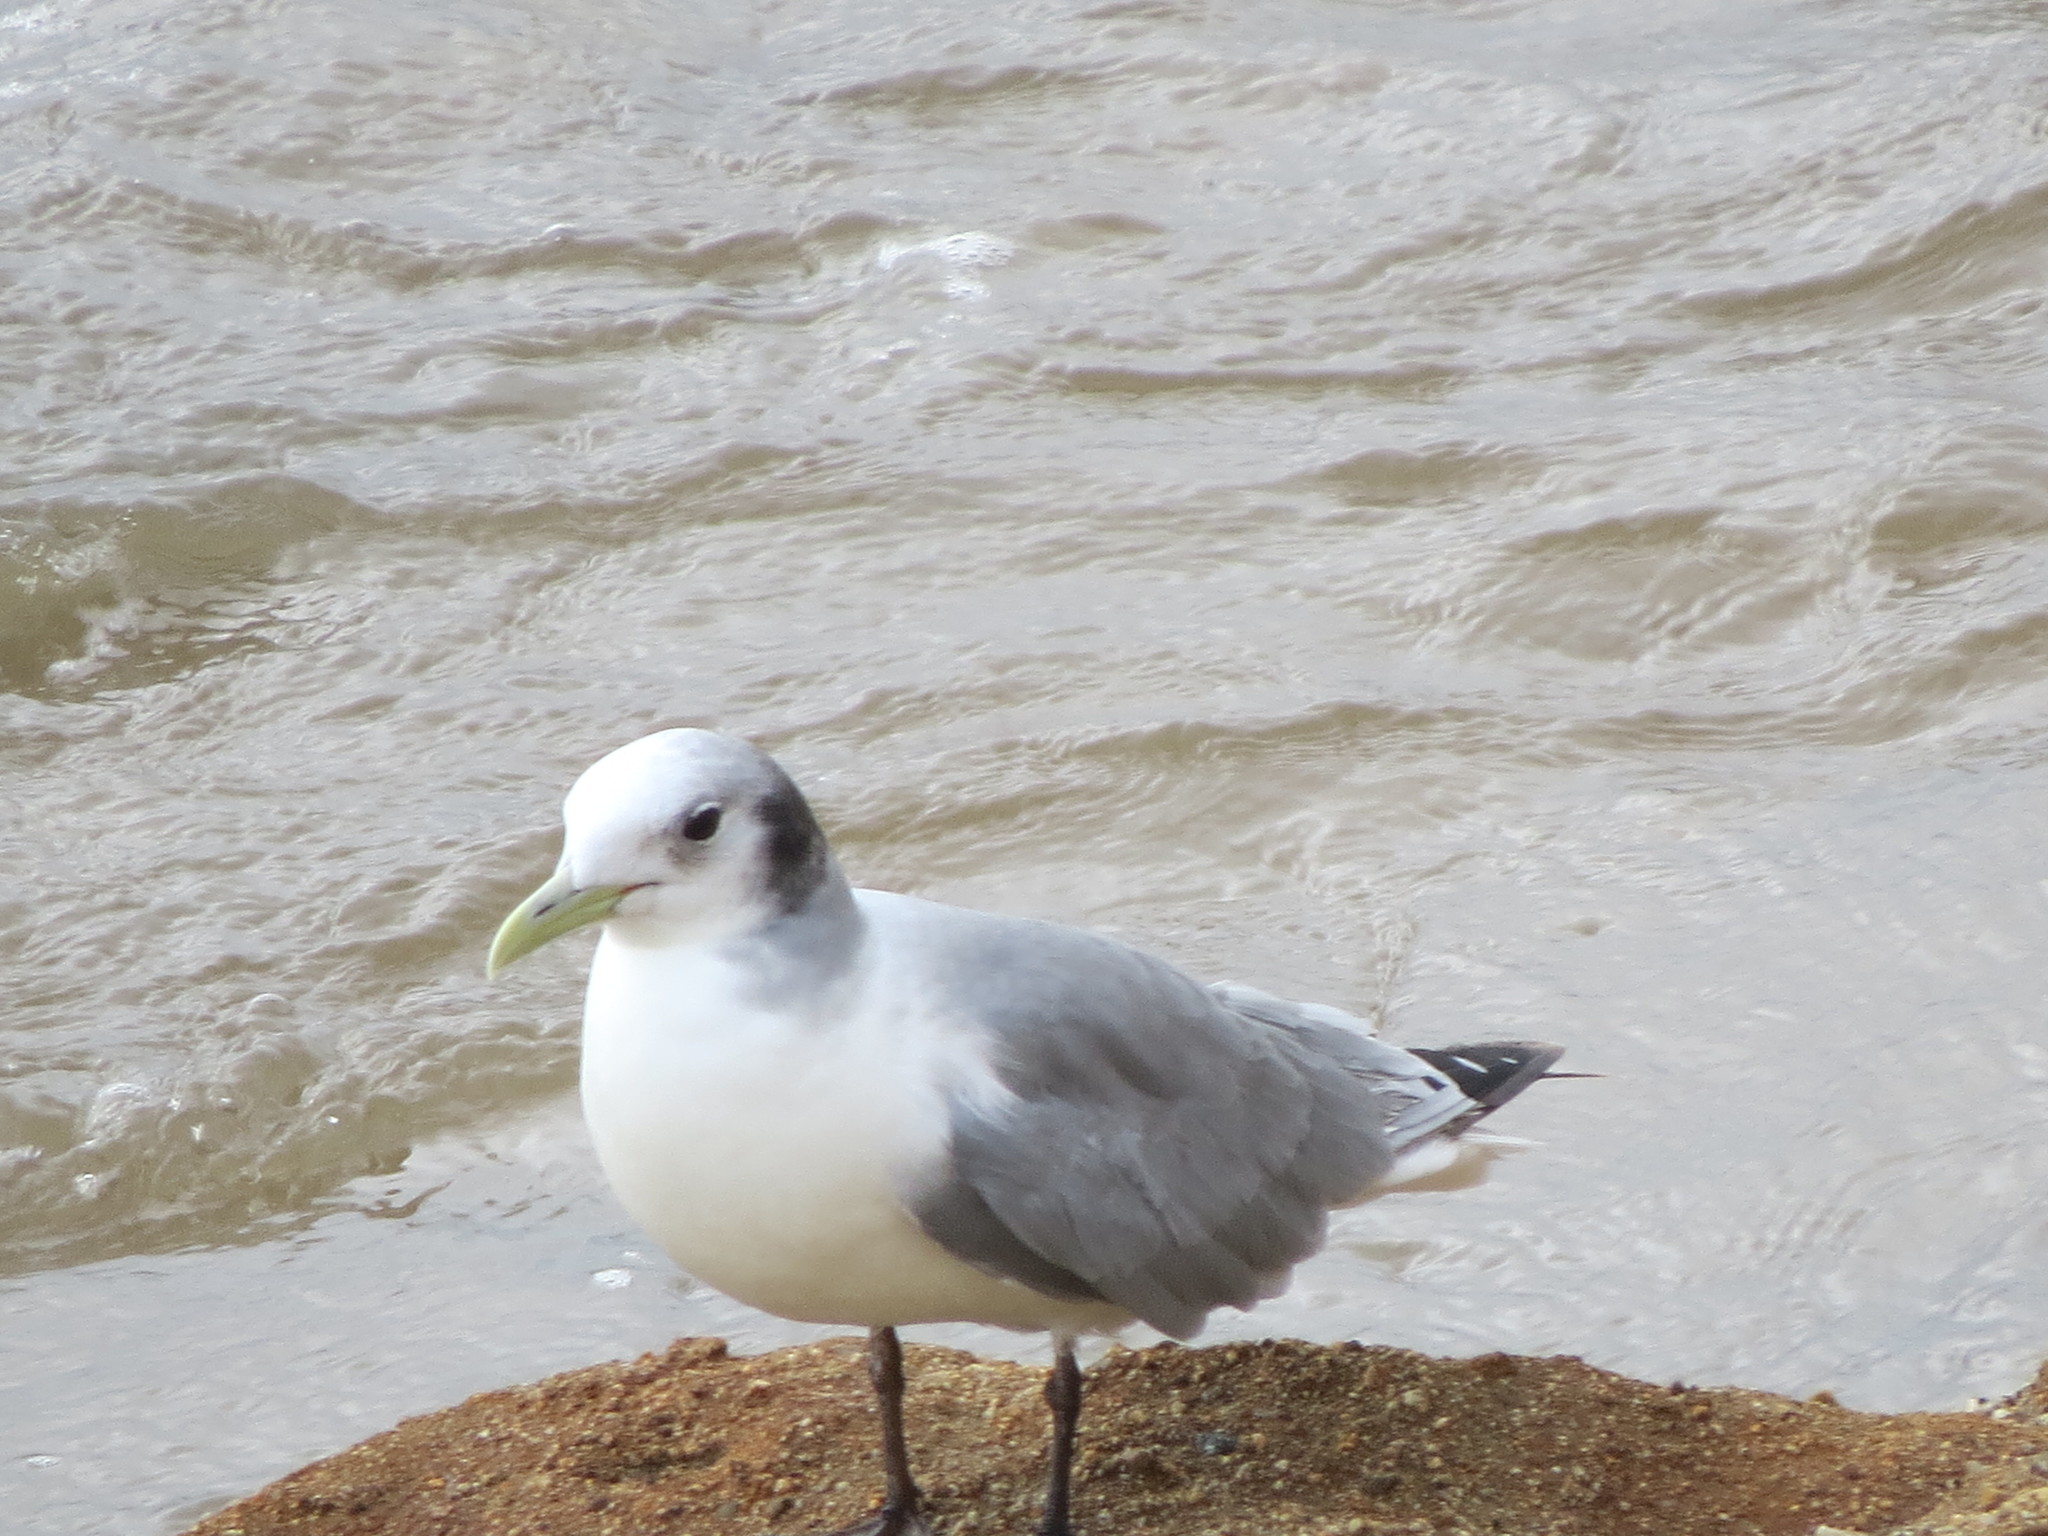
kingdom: Animalia
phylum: Chordata
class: Aves
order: Charadriiformes
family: Laridae
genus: Rissa
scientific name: Rissa tridactyla
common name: Black-legged kittiwake
